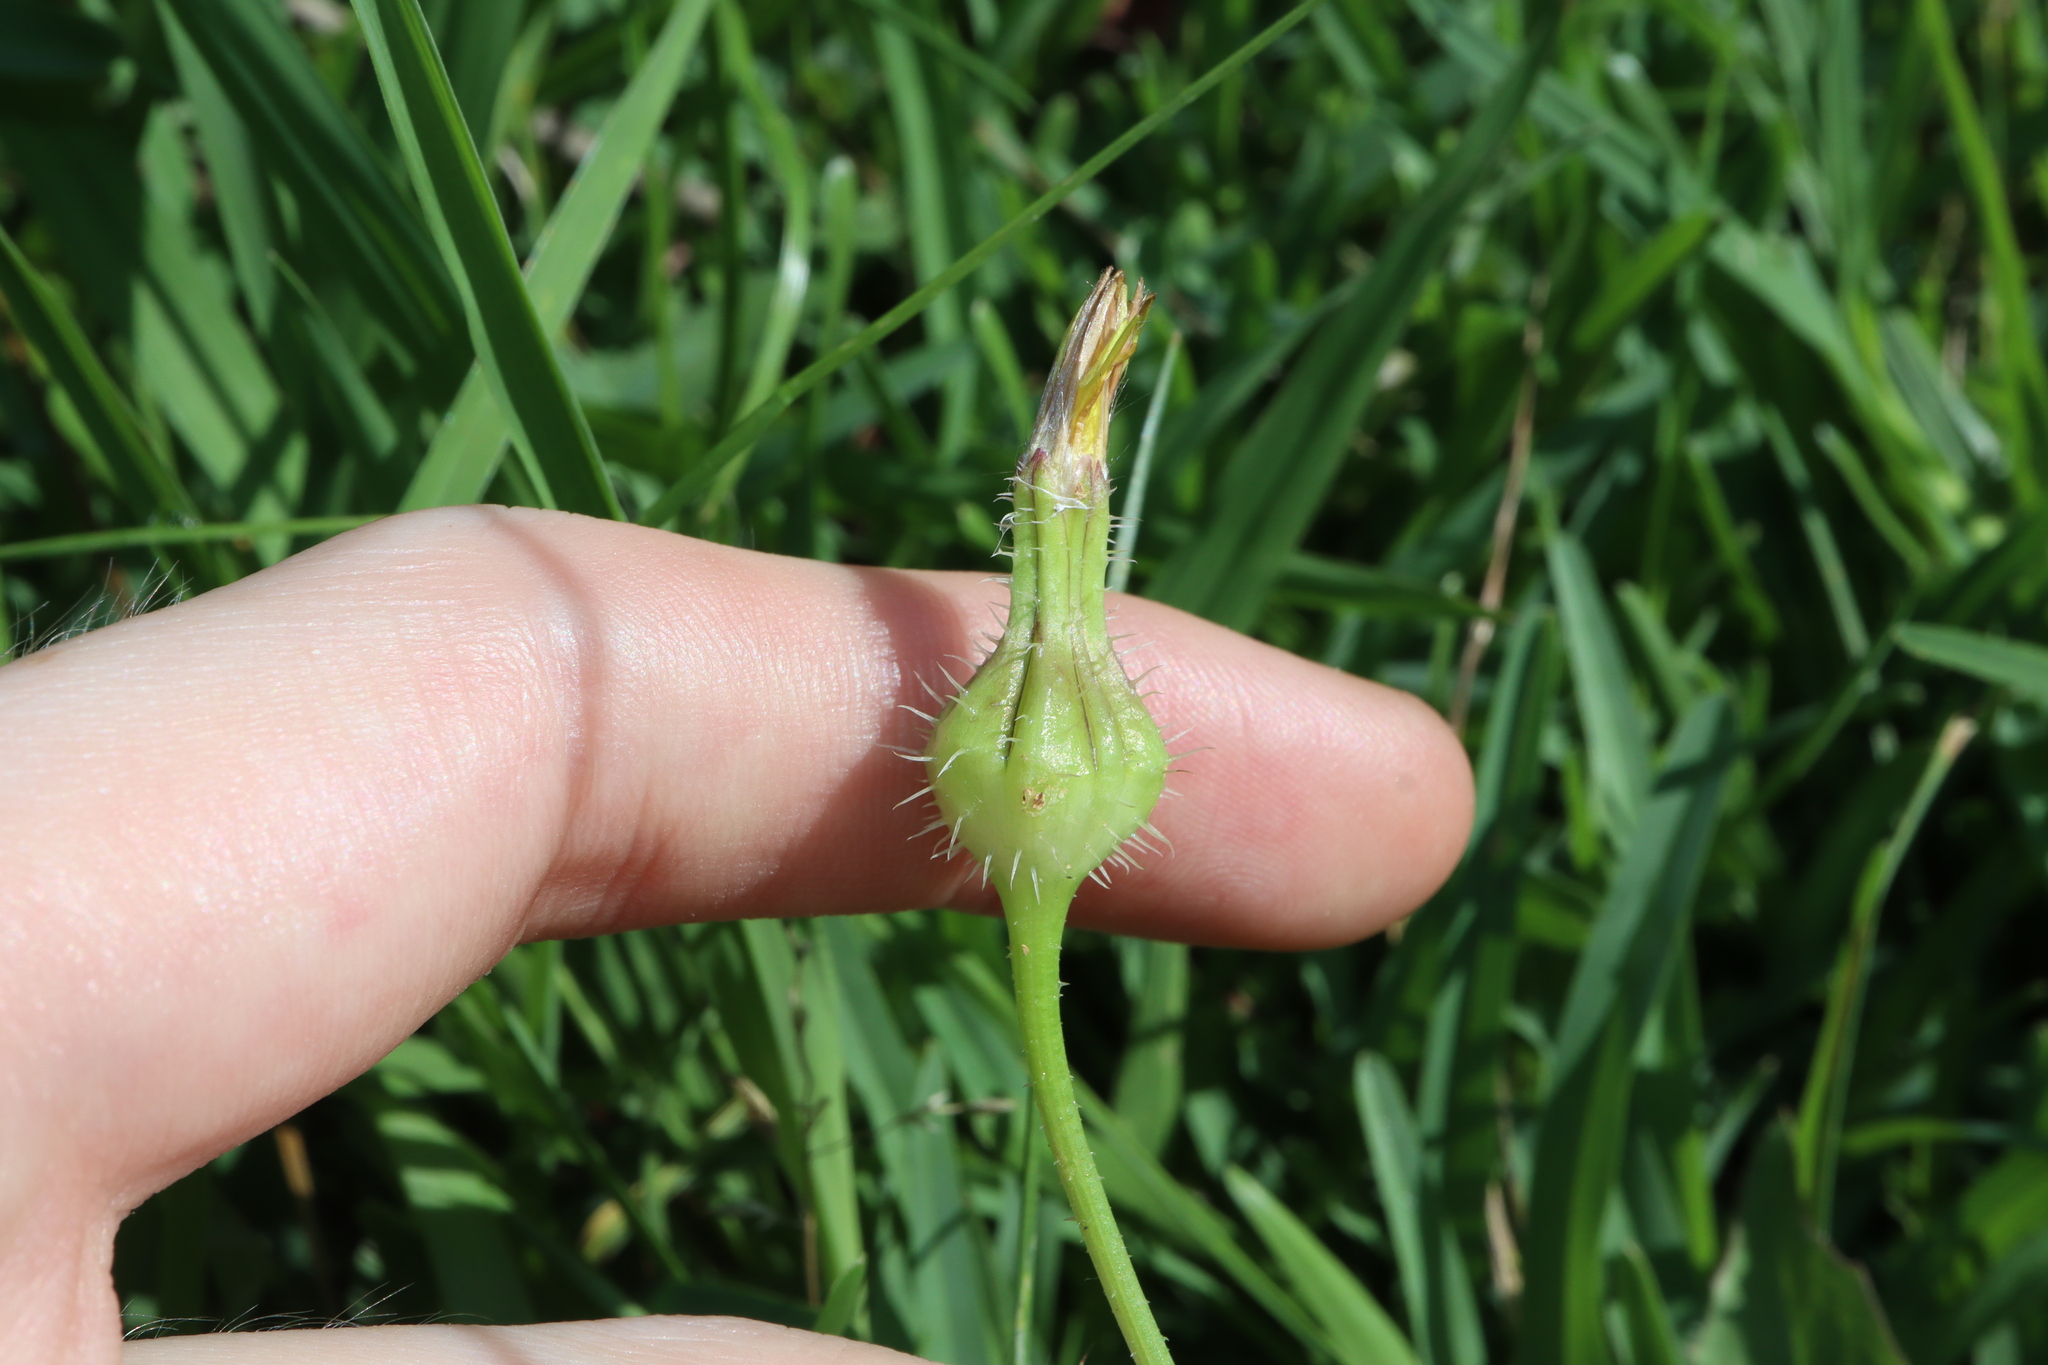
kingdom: Plantae
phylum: Tracheophyta
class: Magnoliopsida
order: Asterales
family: Asteraceae
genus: Urospermum
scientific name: Urospermum picroides
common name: False hawkbit
